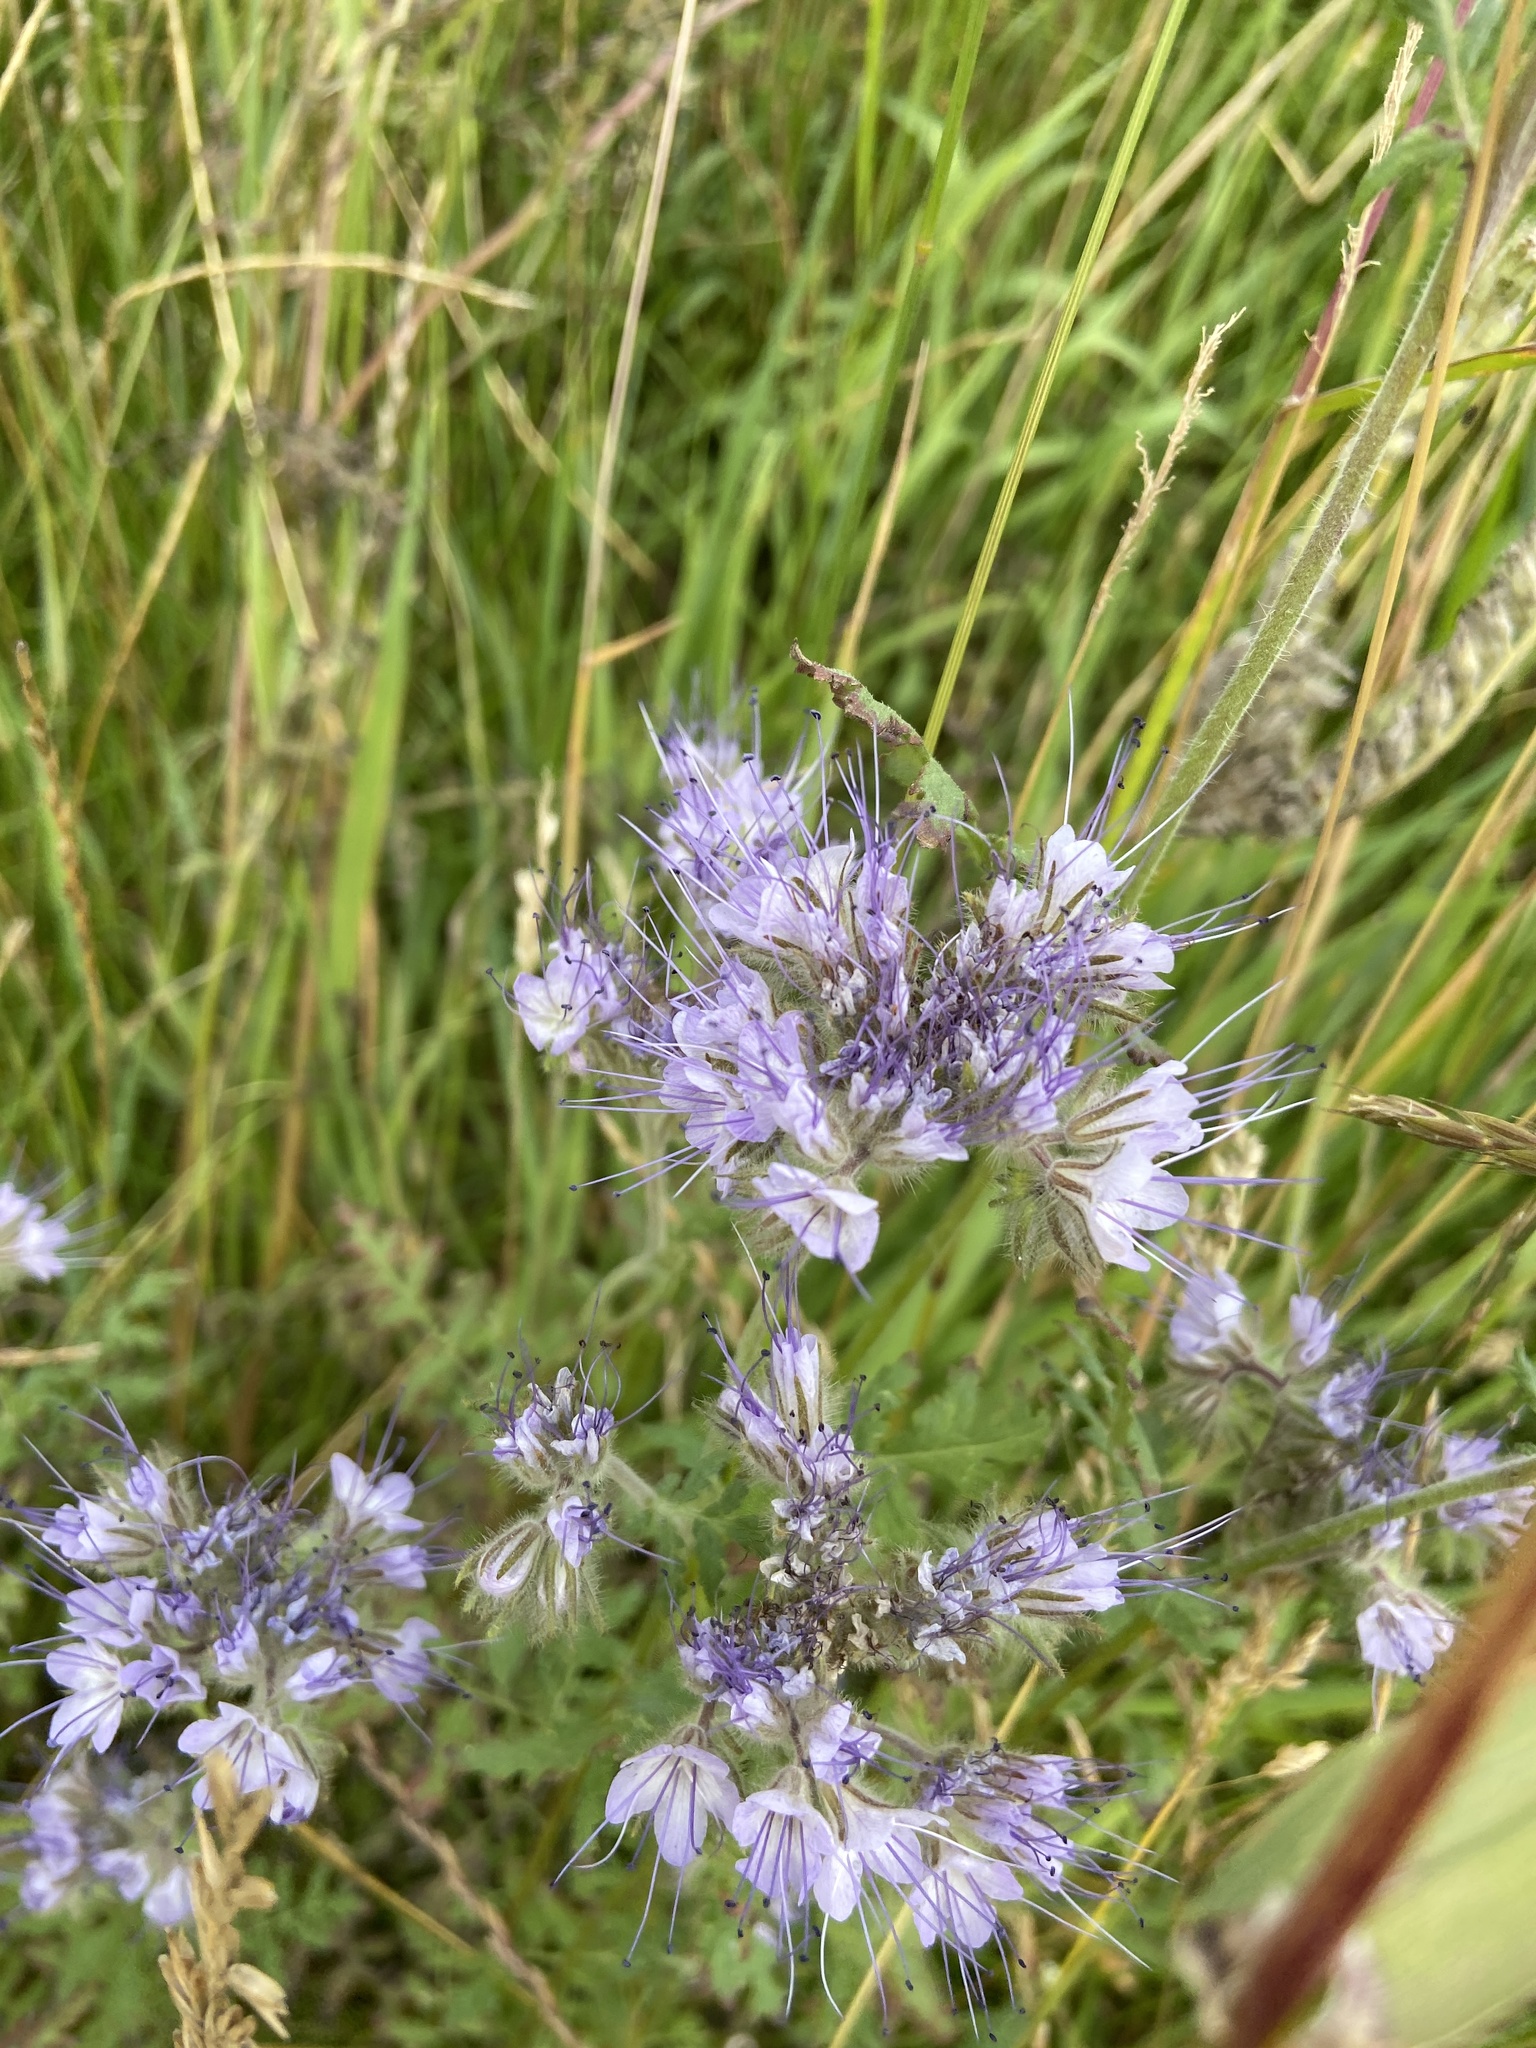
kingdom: Plantae
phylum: Tracheophyta
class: Magnoliopsida
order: Boraginales
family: Hydrophyllaceae
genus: Phacelia
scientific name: Phacelia tanacetifolia
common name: Phacelia
